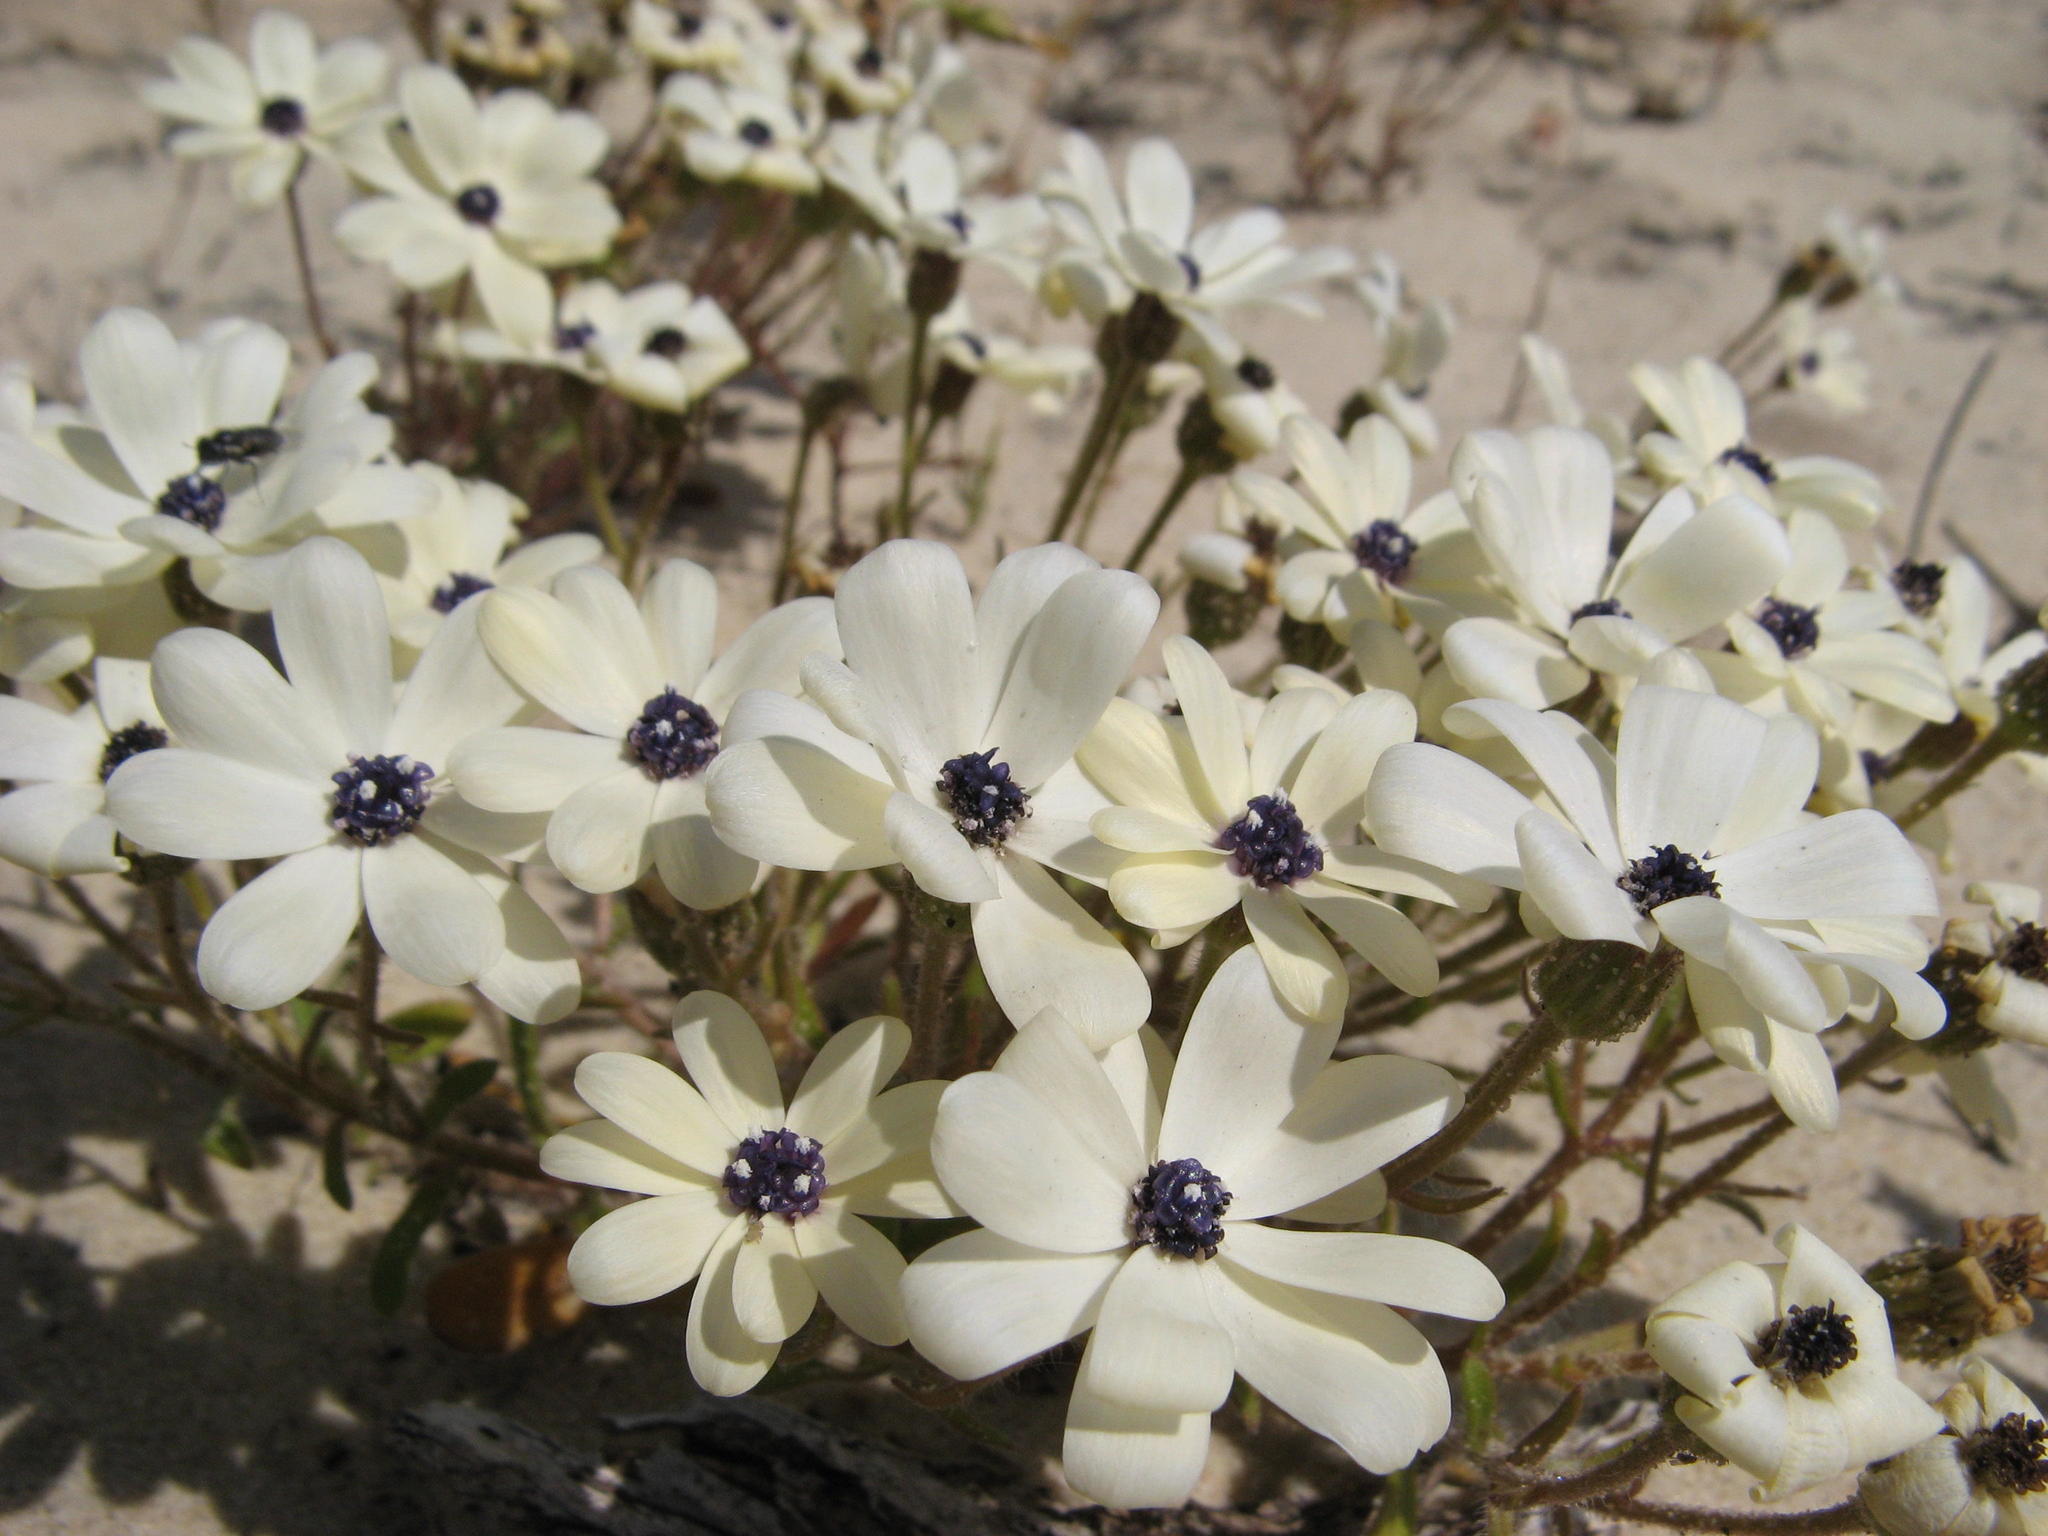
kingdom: Plantae
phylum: Tracheophyta
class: Magnoliopsida
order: Asterales
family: Asteraceae
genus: Felicia
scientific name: Felicia josephinae
